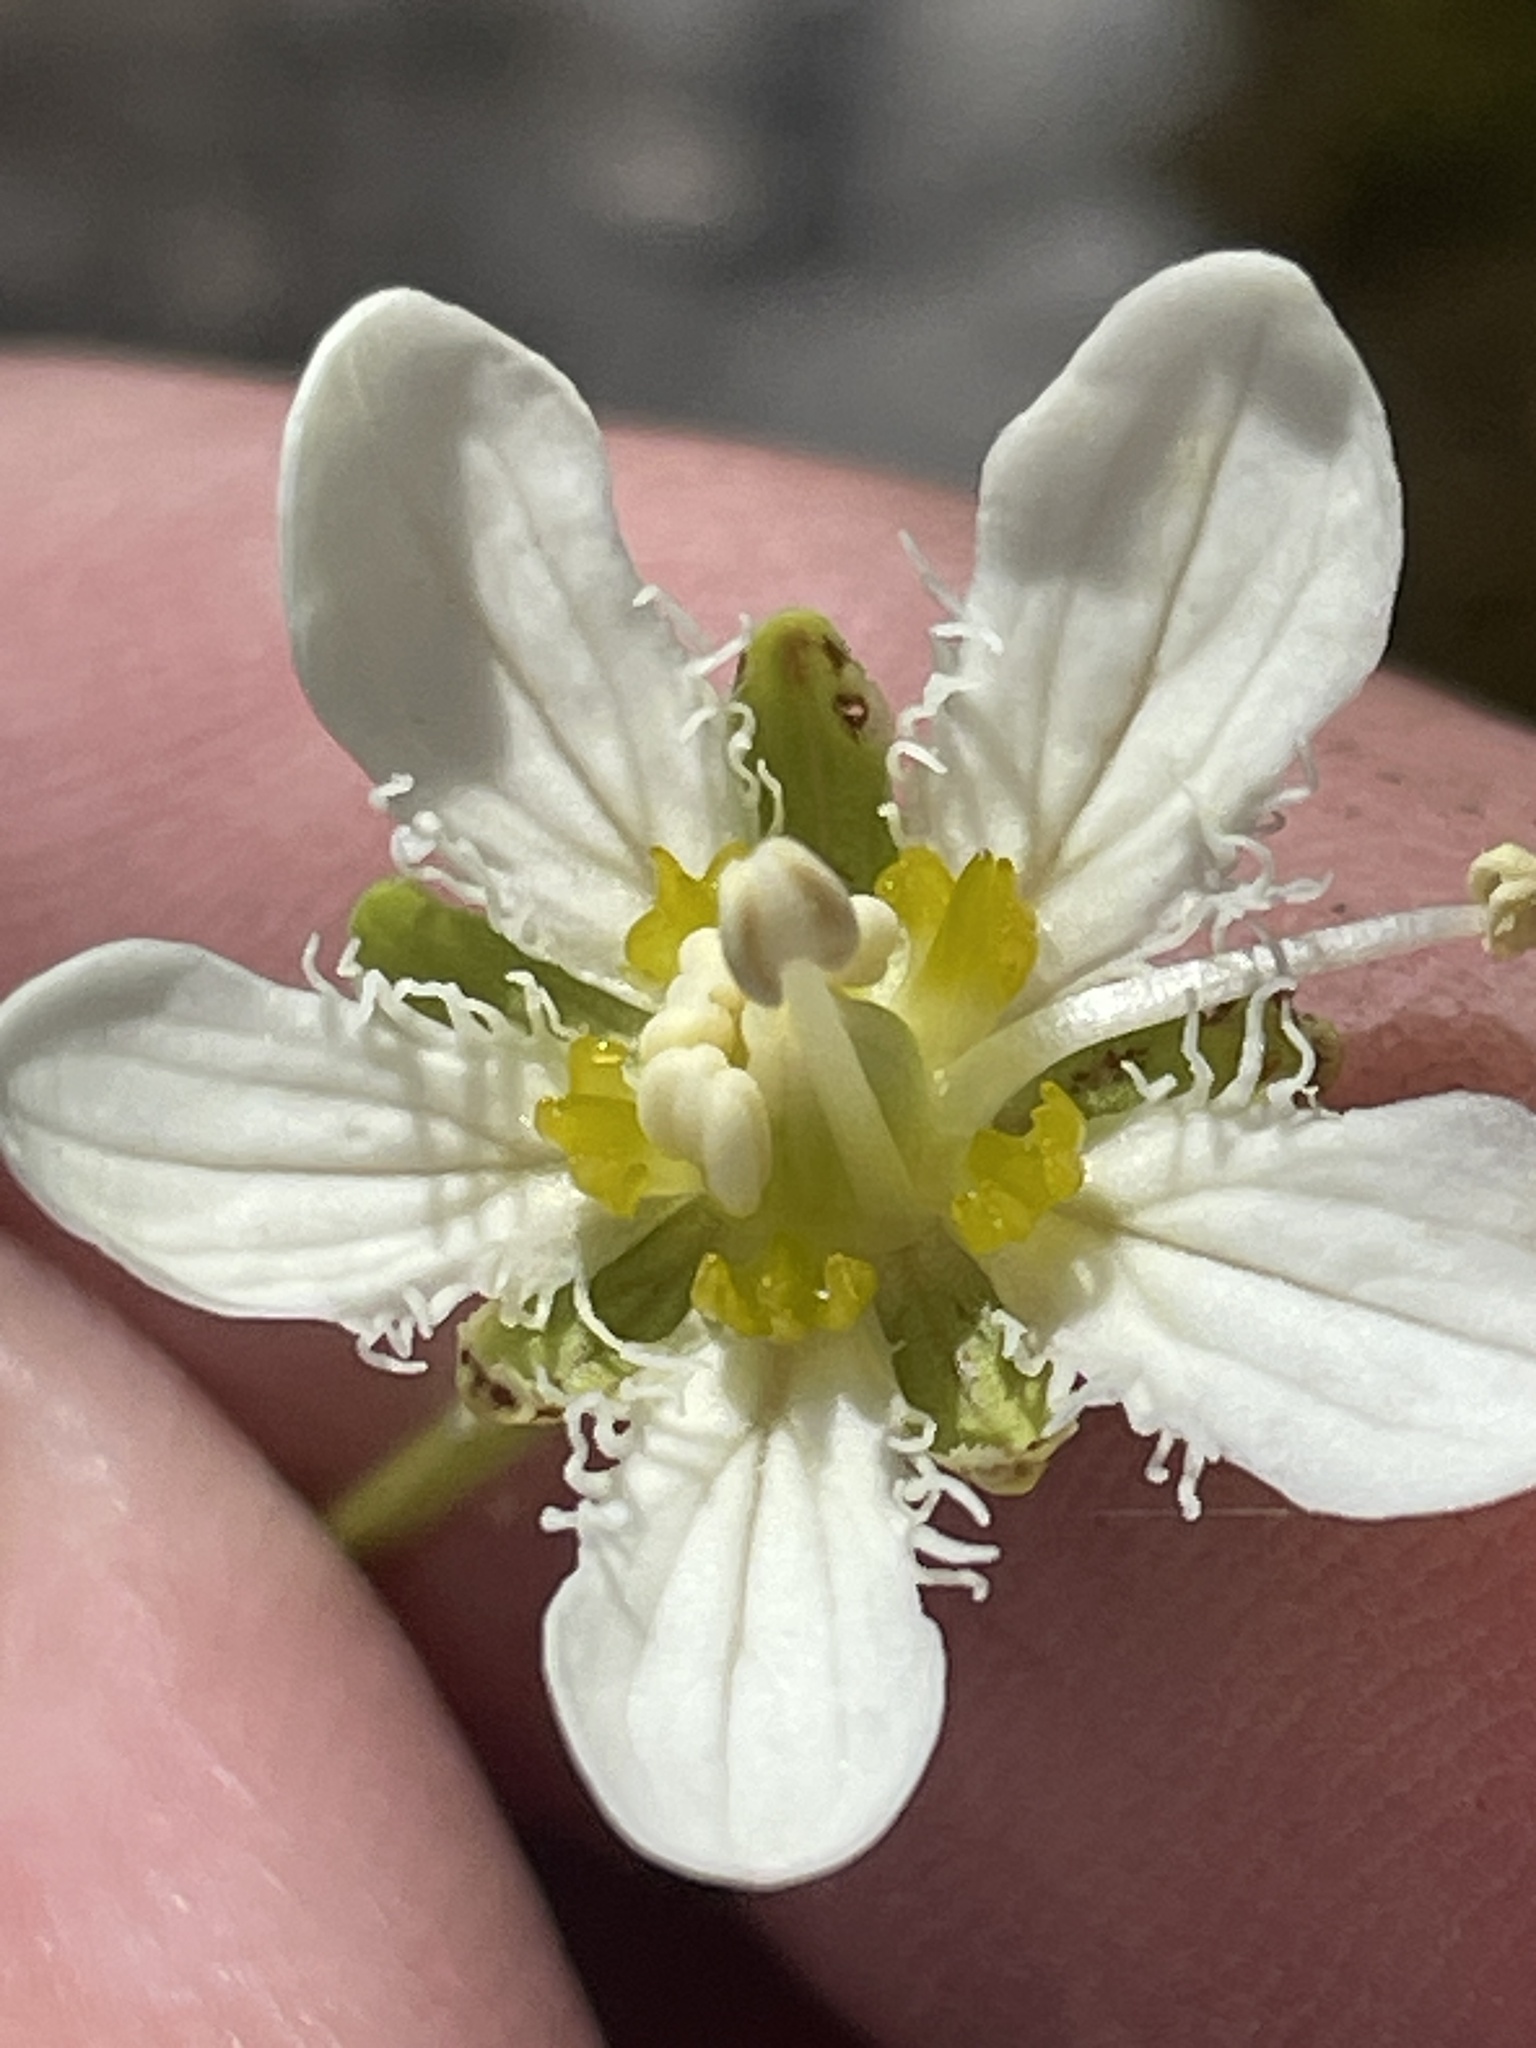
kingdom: Plantae
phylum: Tracheophyta
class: Magnoliopsida
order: Celastrales
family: Parnassiaceae
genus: Parnassia
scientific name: Parnassia fimbriata
